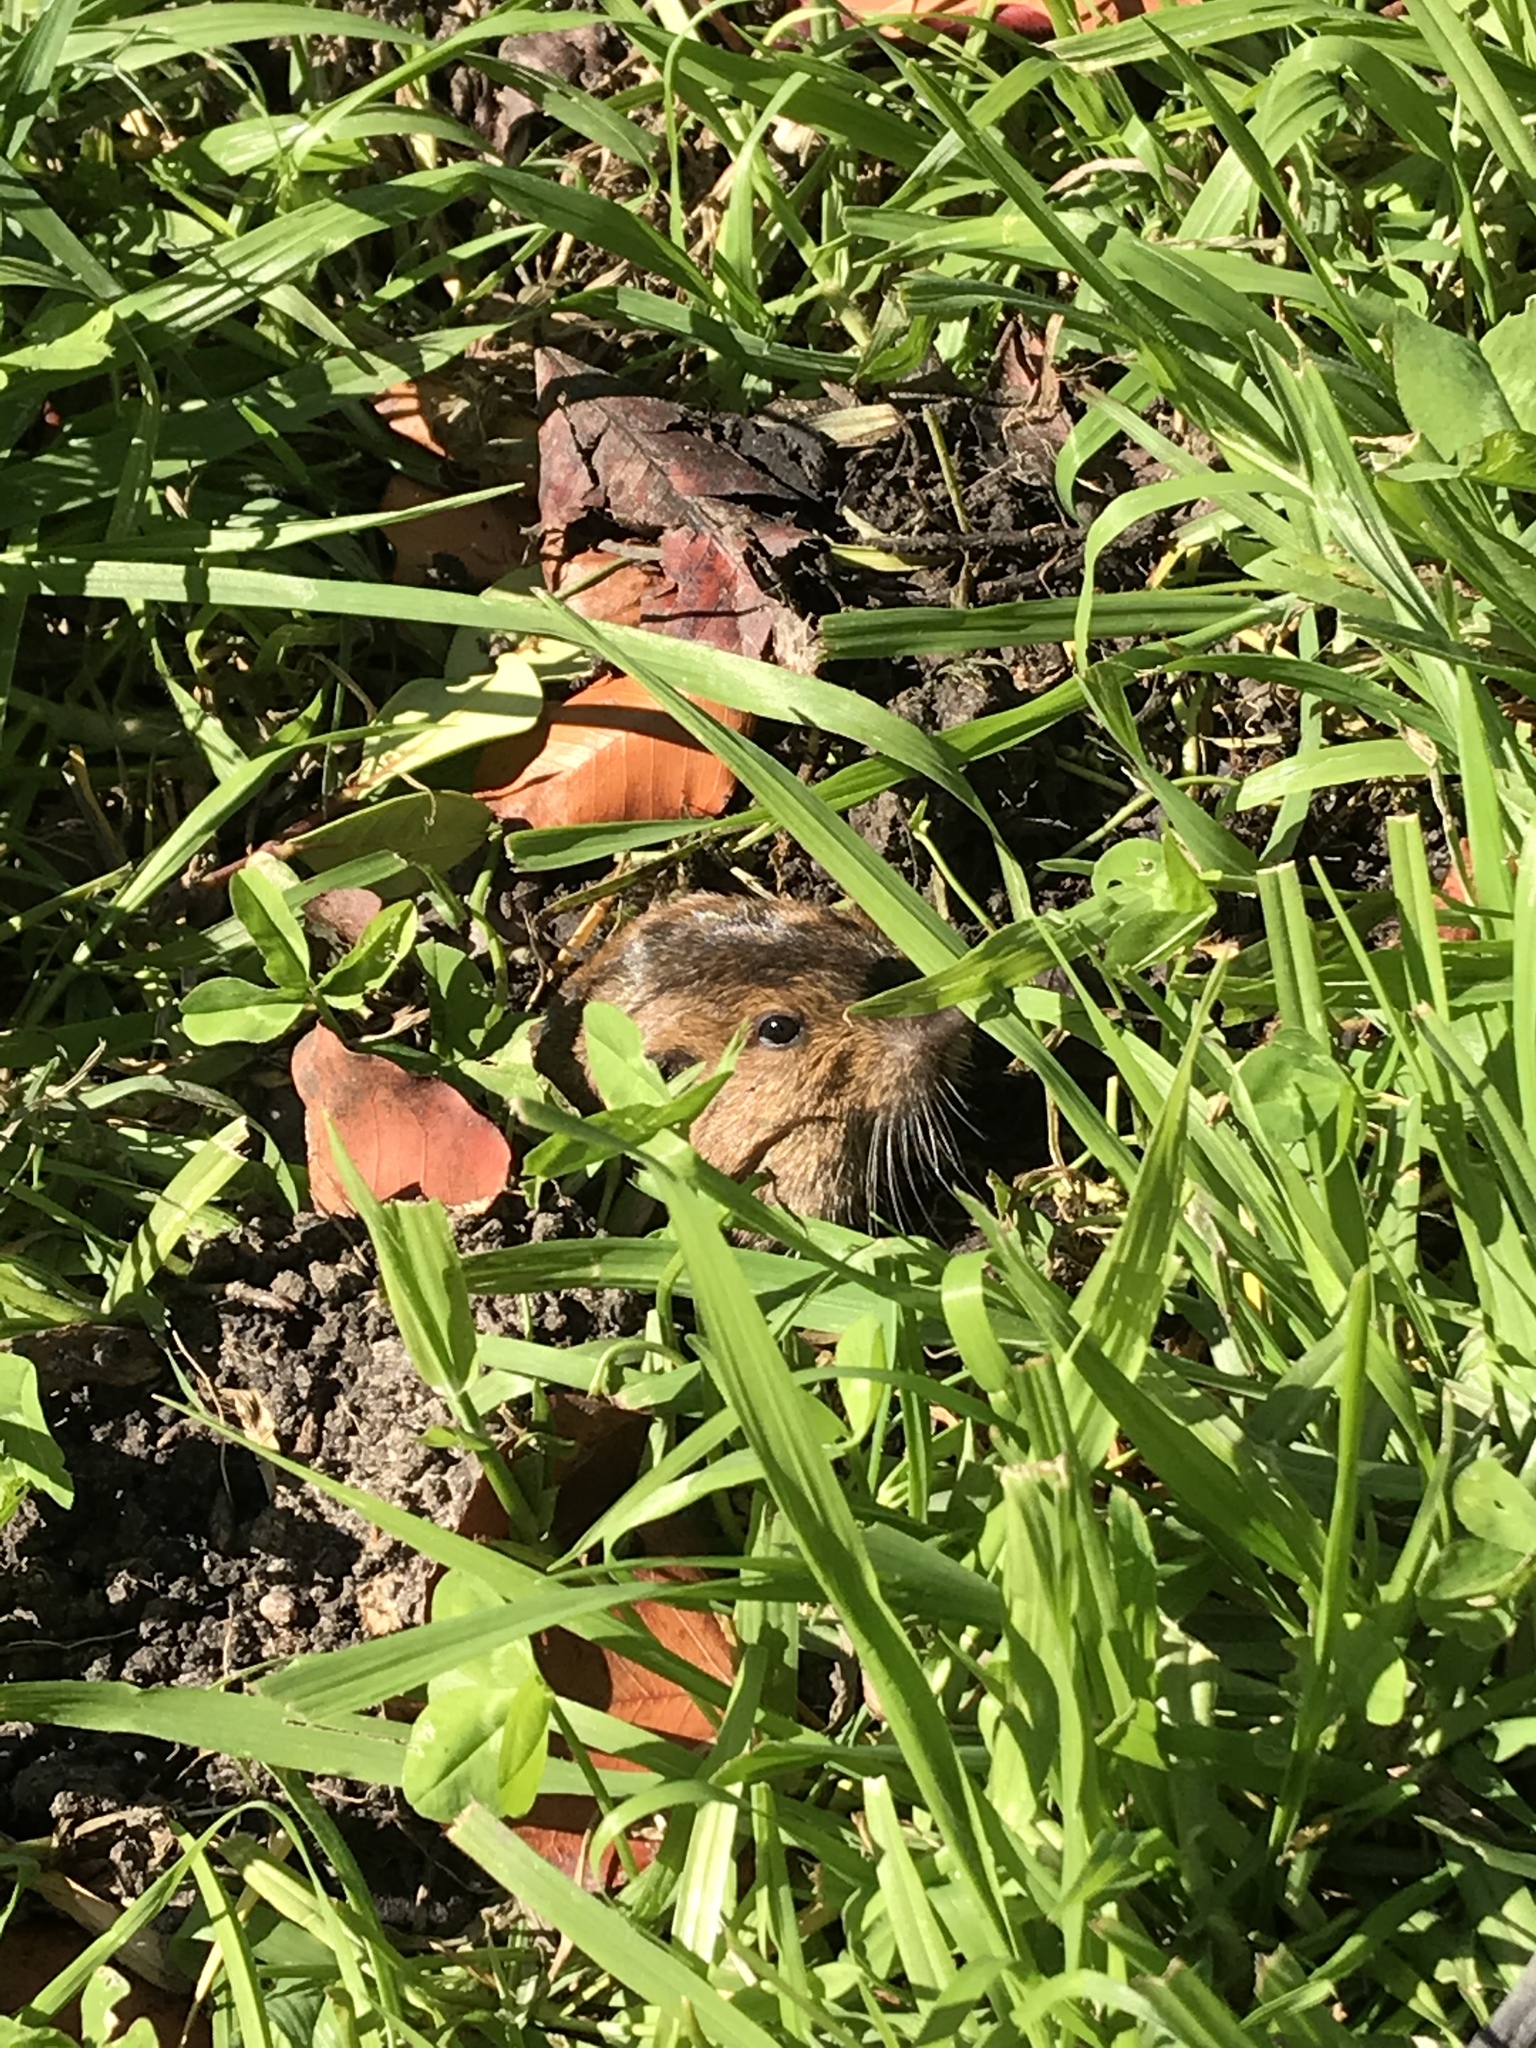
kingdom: Animalia
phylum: Chordata
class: Mammalia
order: Rodentia
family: Geomyidae
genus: Thomomys
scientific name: Thomomys bottae
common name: Botta's pocket gopher
